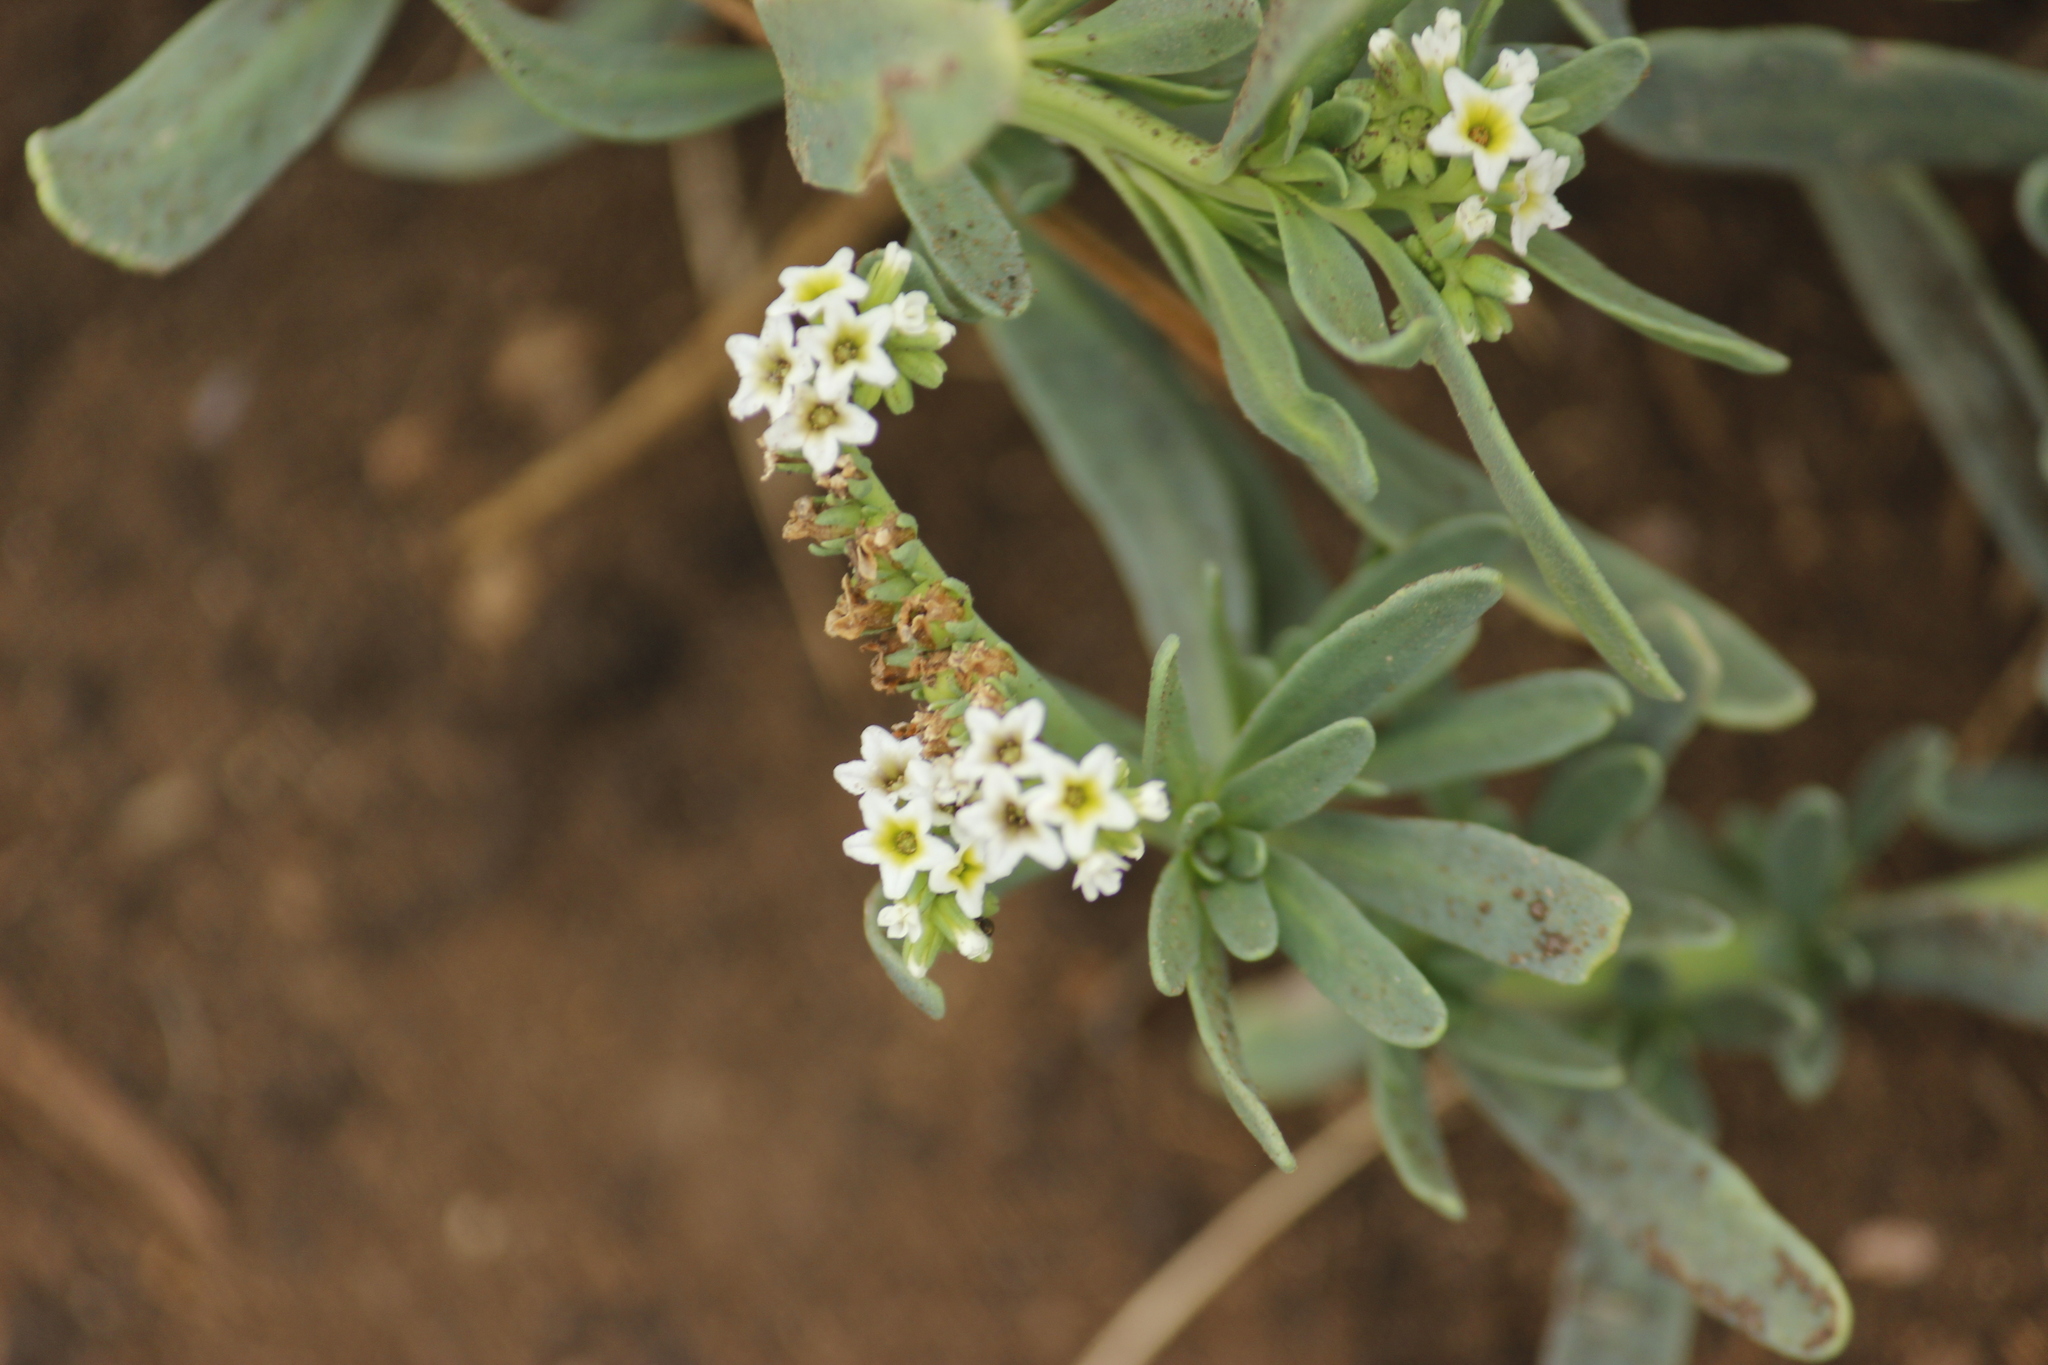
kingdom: Plantae
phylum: Tracheophyta
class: Magnoliopsida
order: Boraginales
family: Heliotropiaceae
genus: Heliotropium
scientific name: Heliotropium curassavicum
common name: Seaside heliotrope
